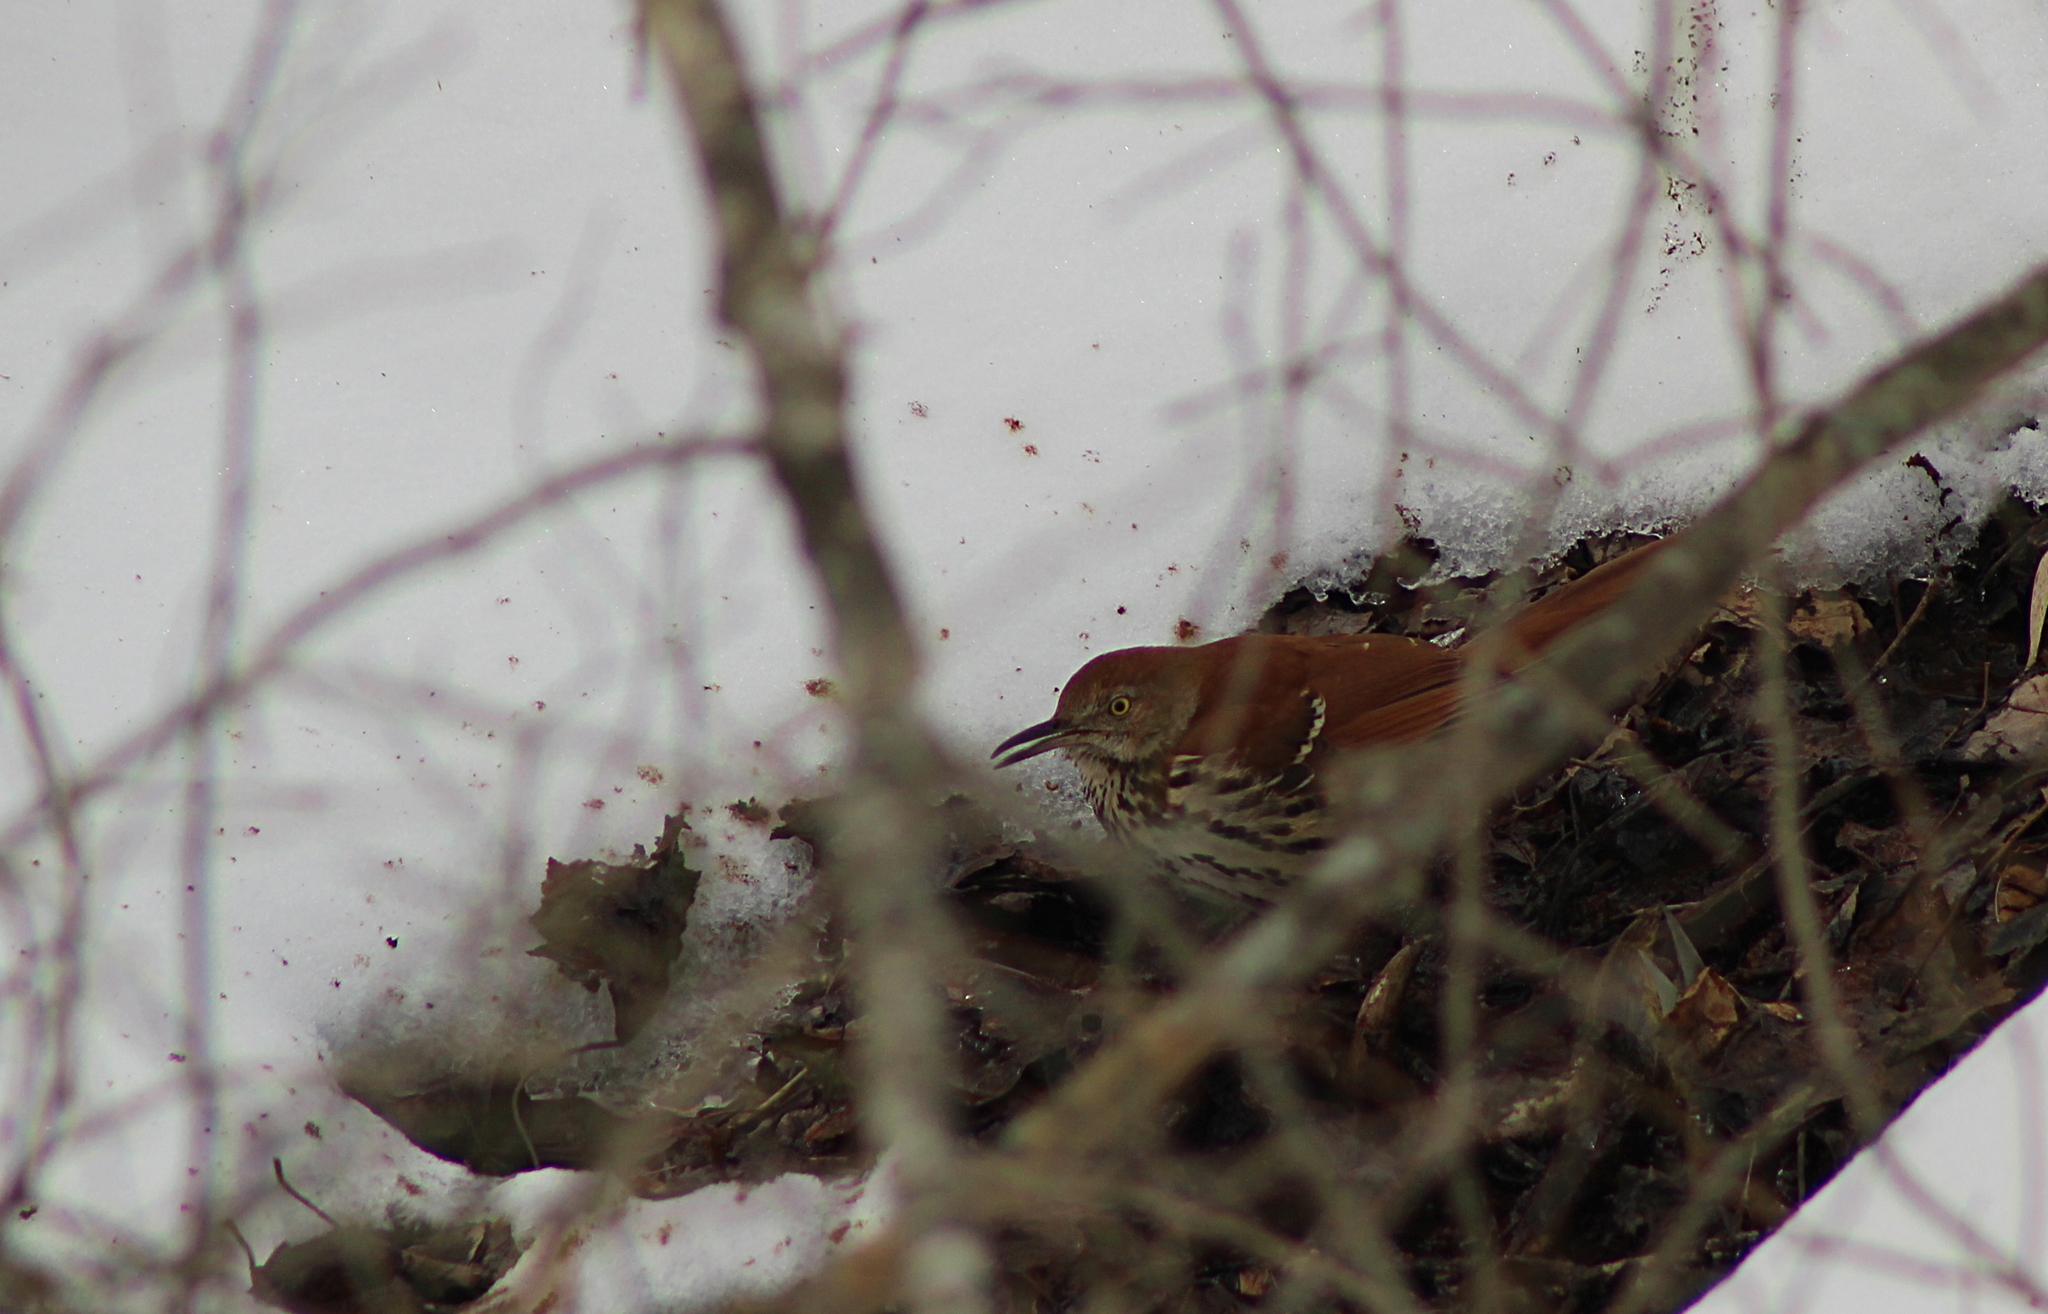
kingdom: Animalia
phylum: Chordata
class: Aves
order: Passeriformes
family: Mimidae
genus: Toxostoma
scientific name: Toxostoma rufum
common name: Brown thrasher
